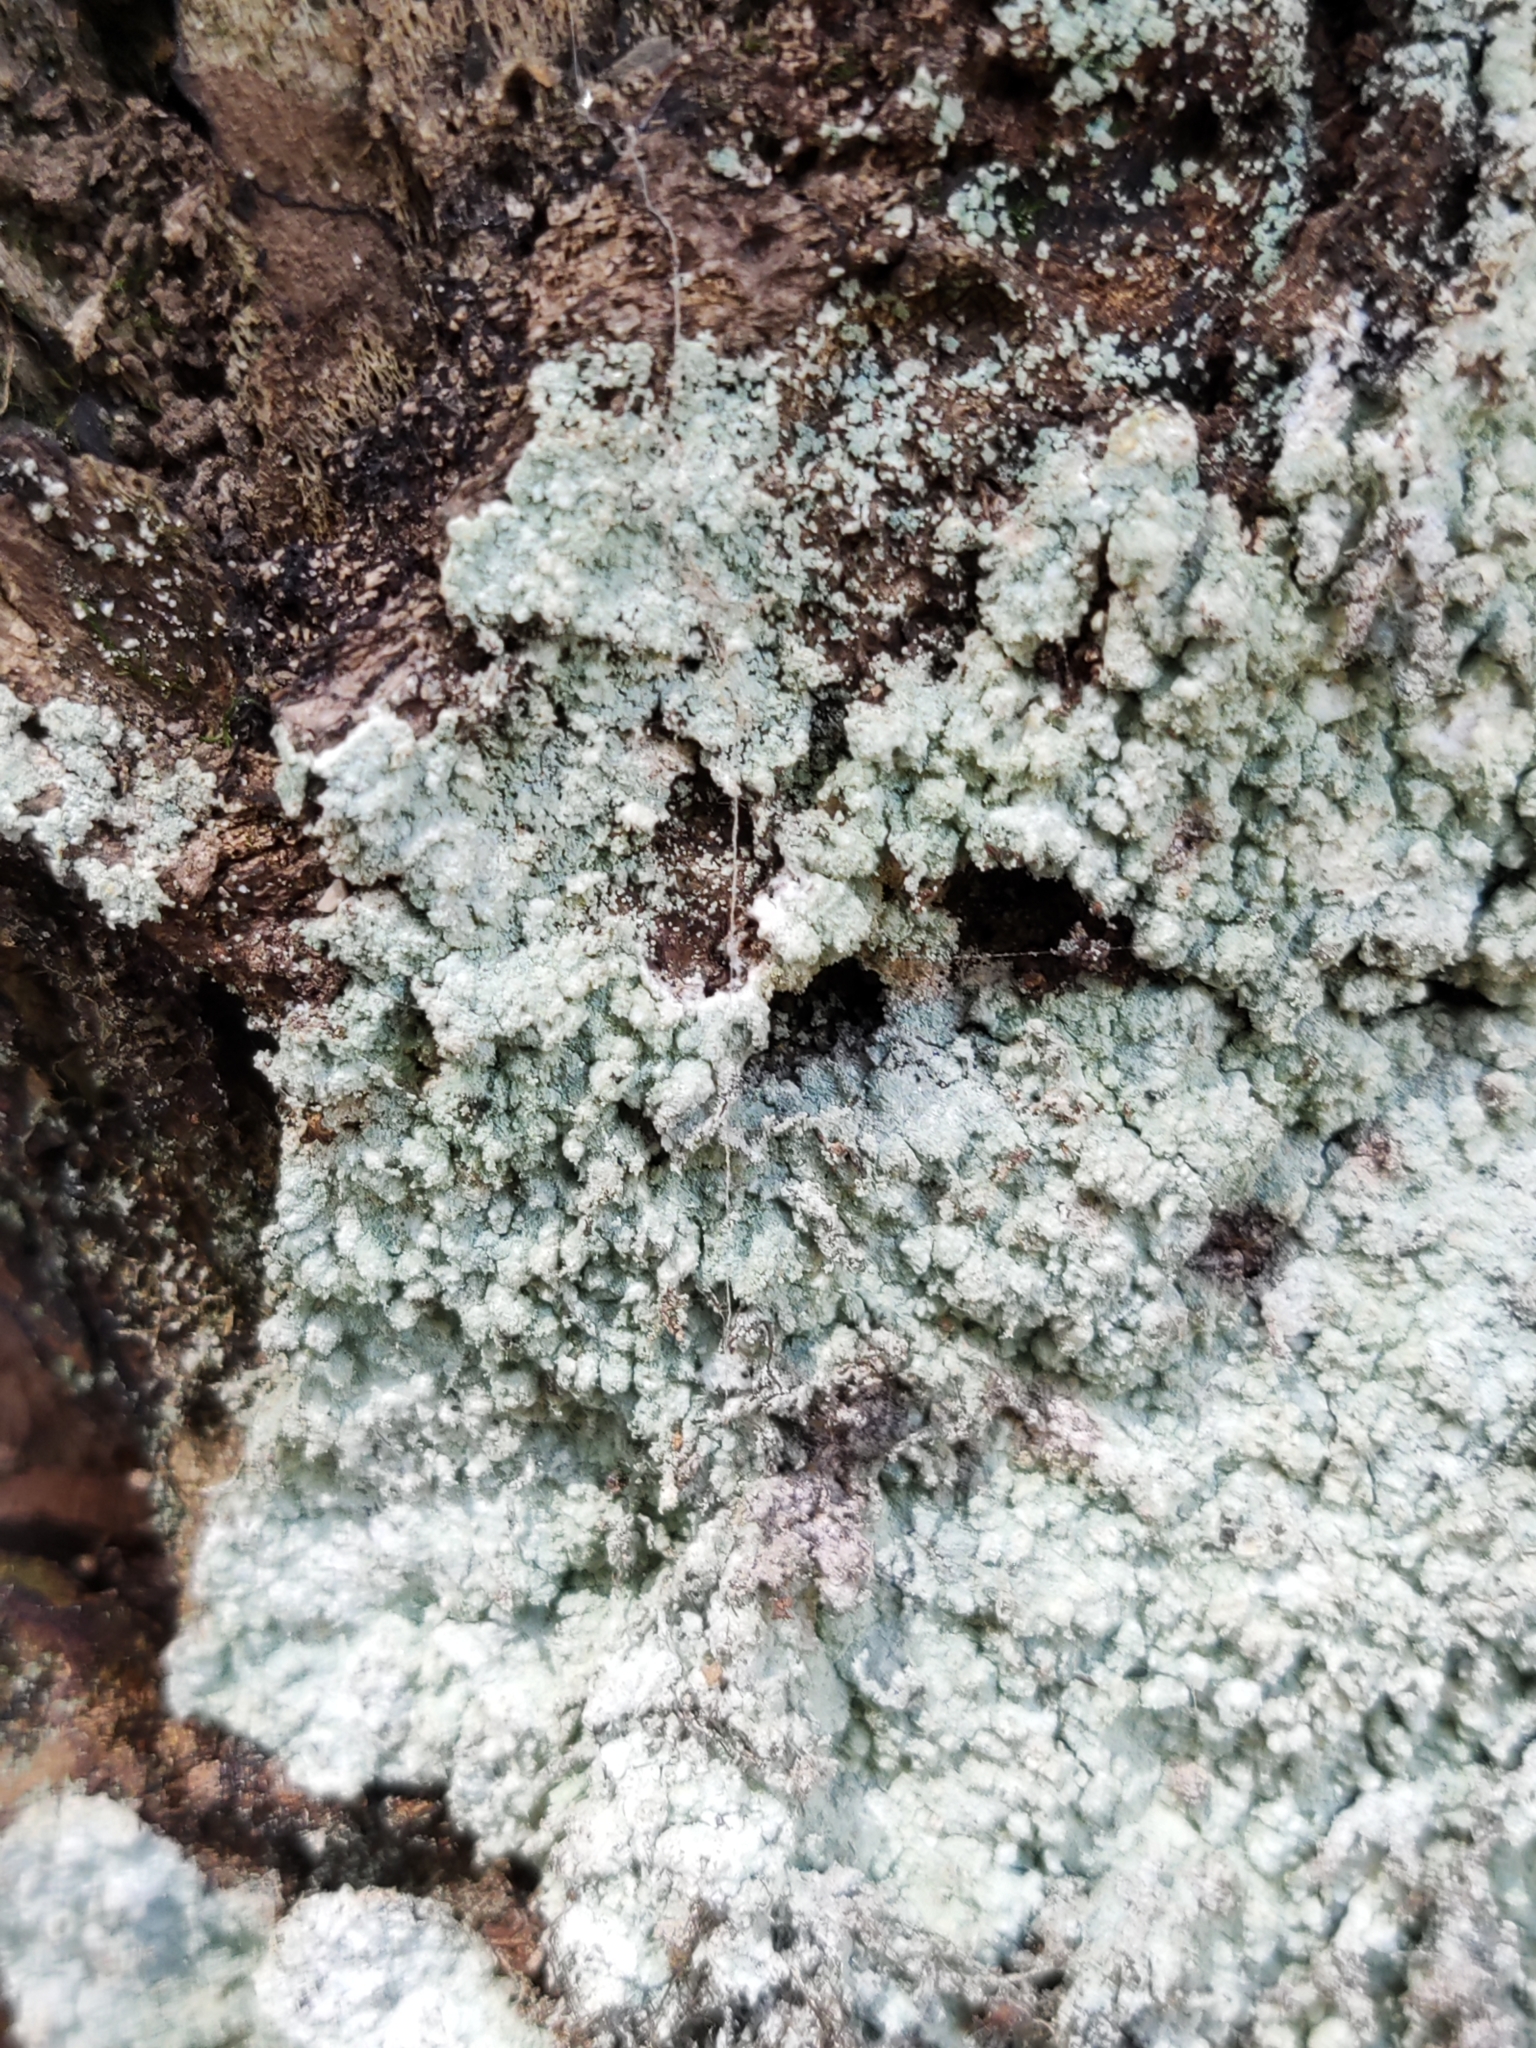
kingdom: Fungi
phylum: Ascomycota
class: Lecanoromycetes
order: Lecanorales
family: Stereocaulaceae
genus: Lepraria
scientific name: Lepraria
